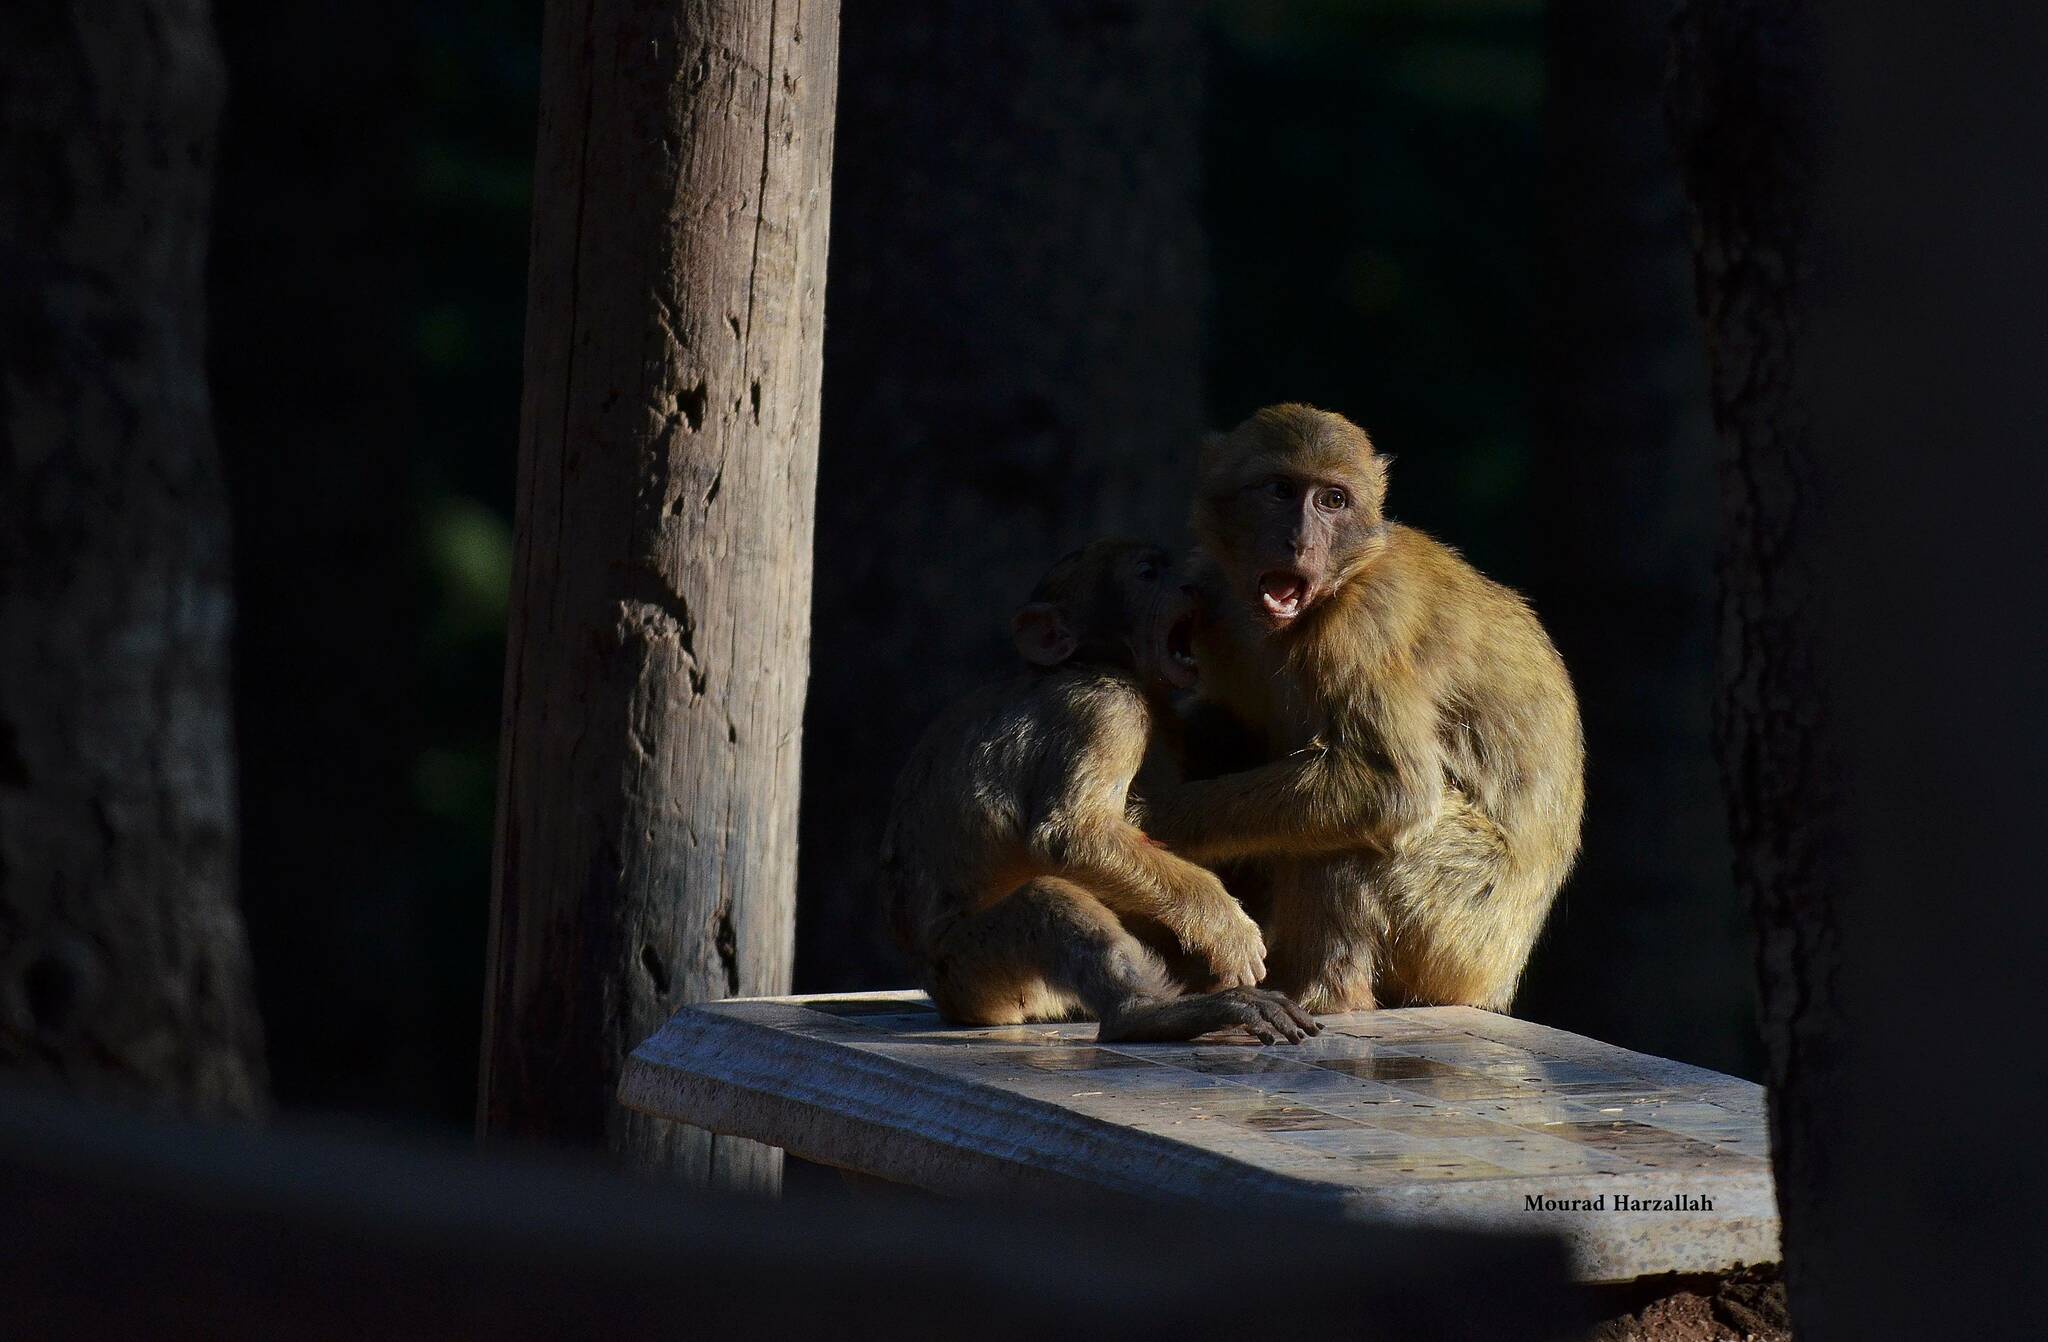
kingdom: Animalia
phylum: Chordata
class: Mammalia
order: Primates
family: Cercopithecidae
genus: Macaca
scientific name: Macaca sylvanus
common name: Barbary macaque
